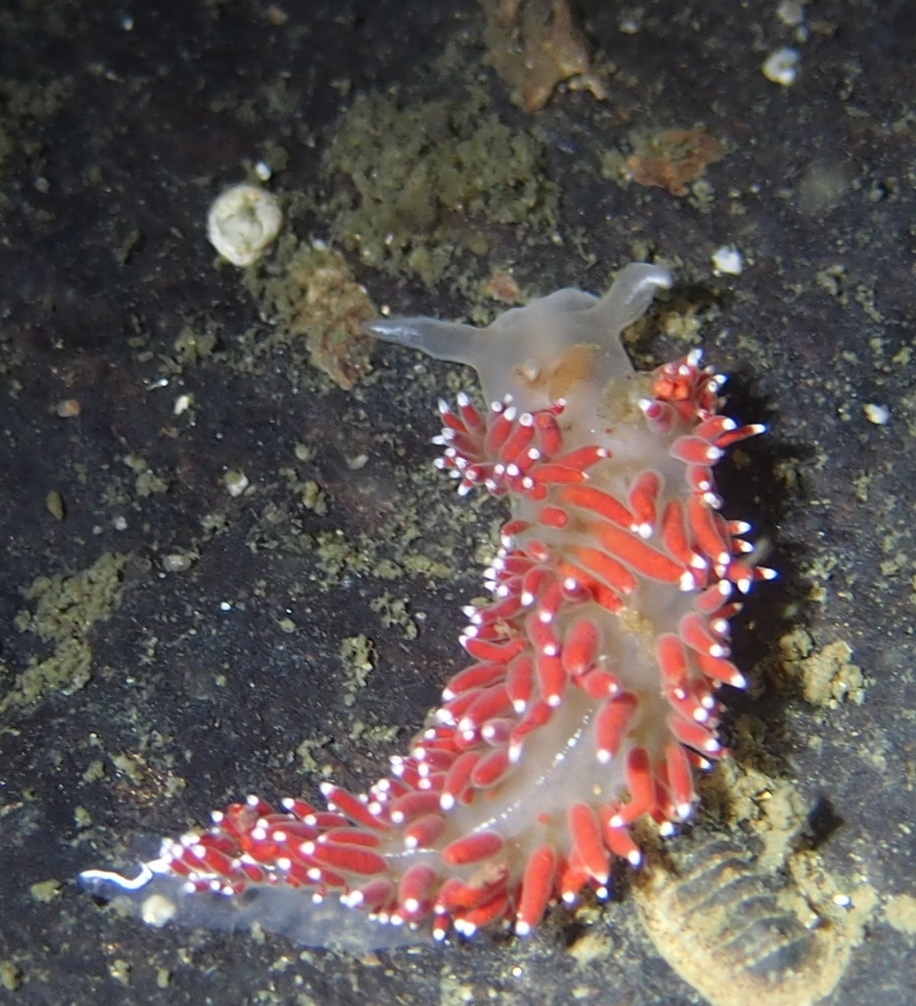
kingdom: Animalia
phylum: Mollusca
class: Gastropoda
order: Nudibranchia
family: Coryphellidae
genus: Coryphella
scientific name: Coryphella verrucosa
